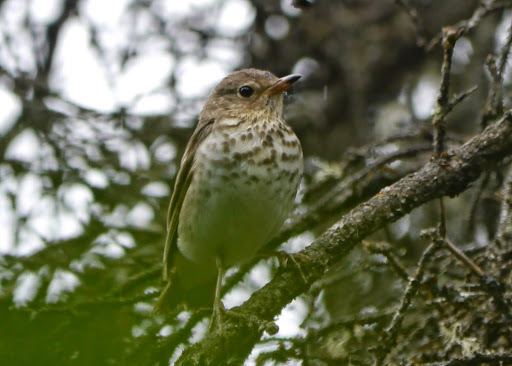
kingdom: Animalia
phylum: Chordata
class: Aves
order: Passeriformes
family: Turdidae
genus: Catharus
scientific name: Catharus ustulatus
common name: Swainson's thrush
